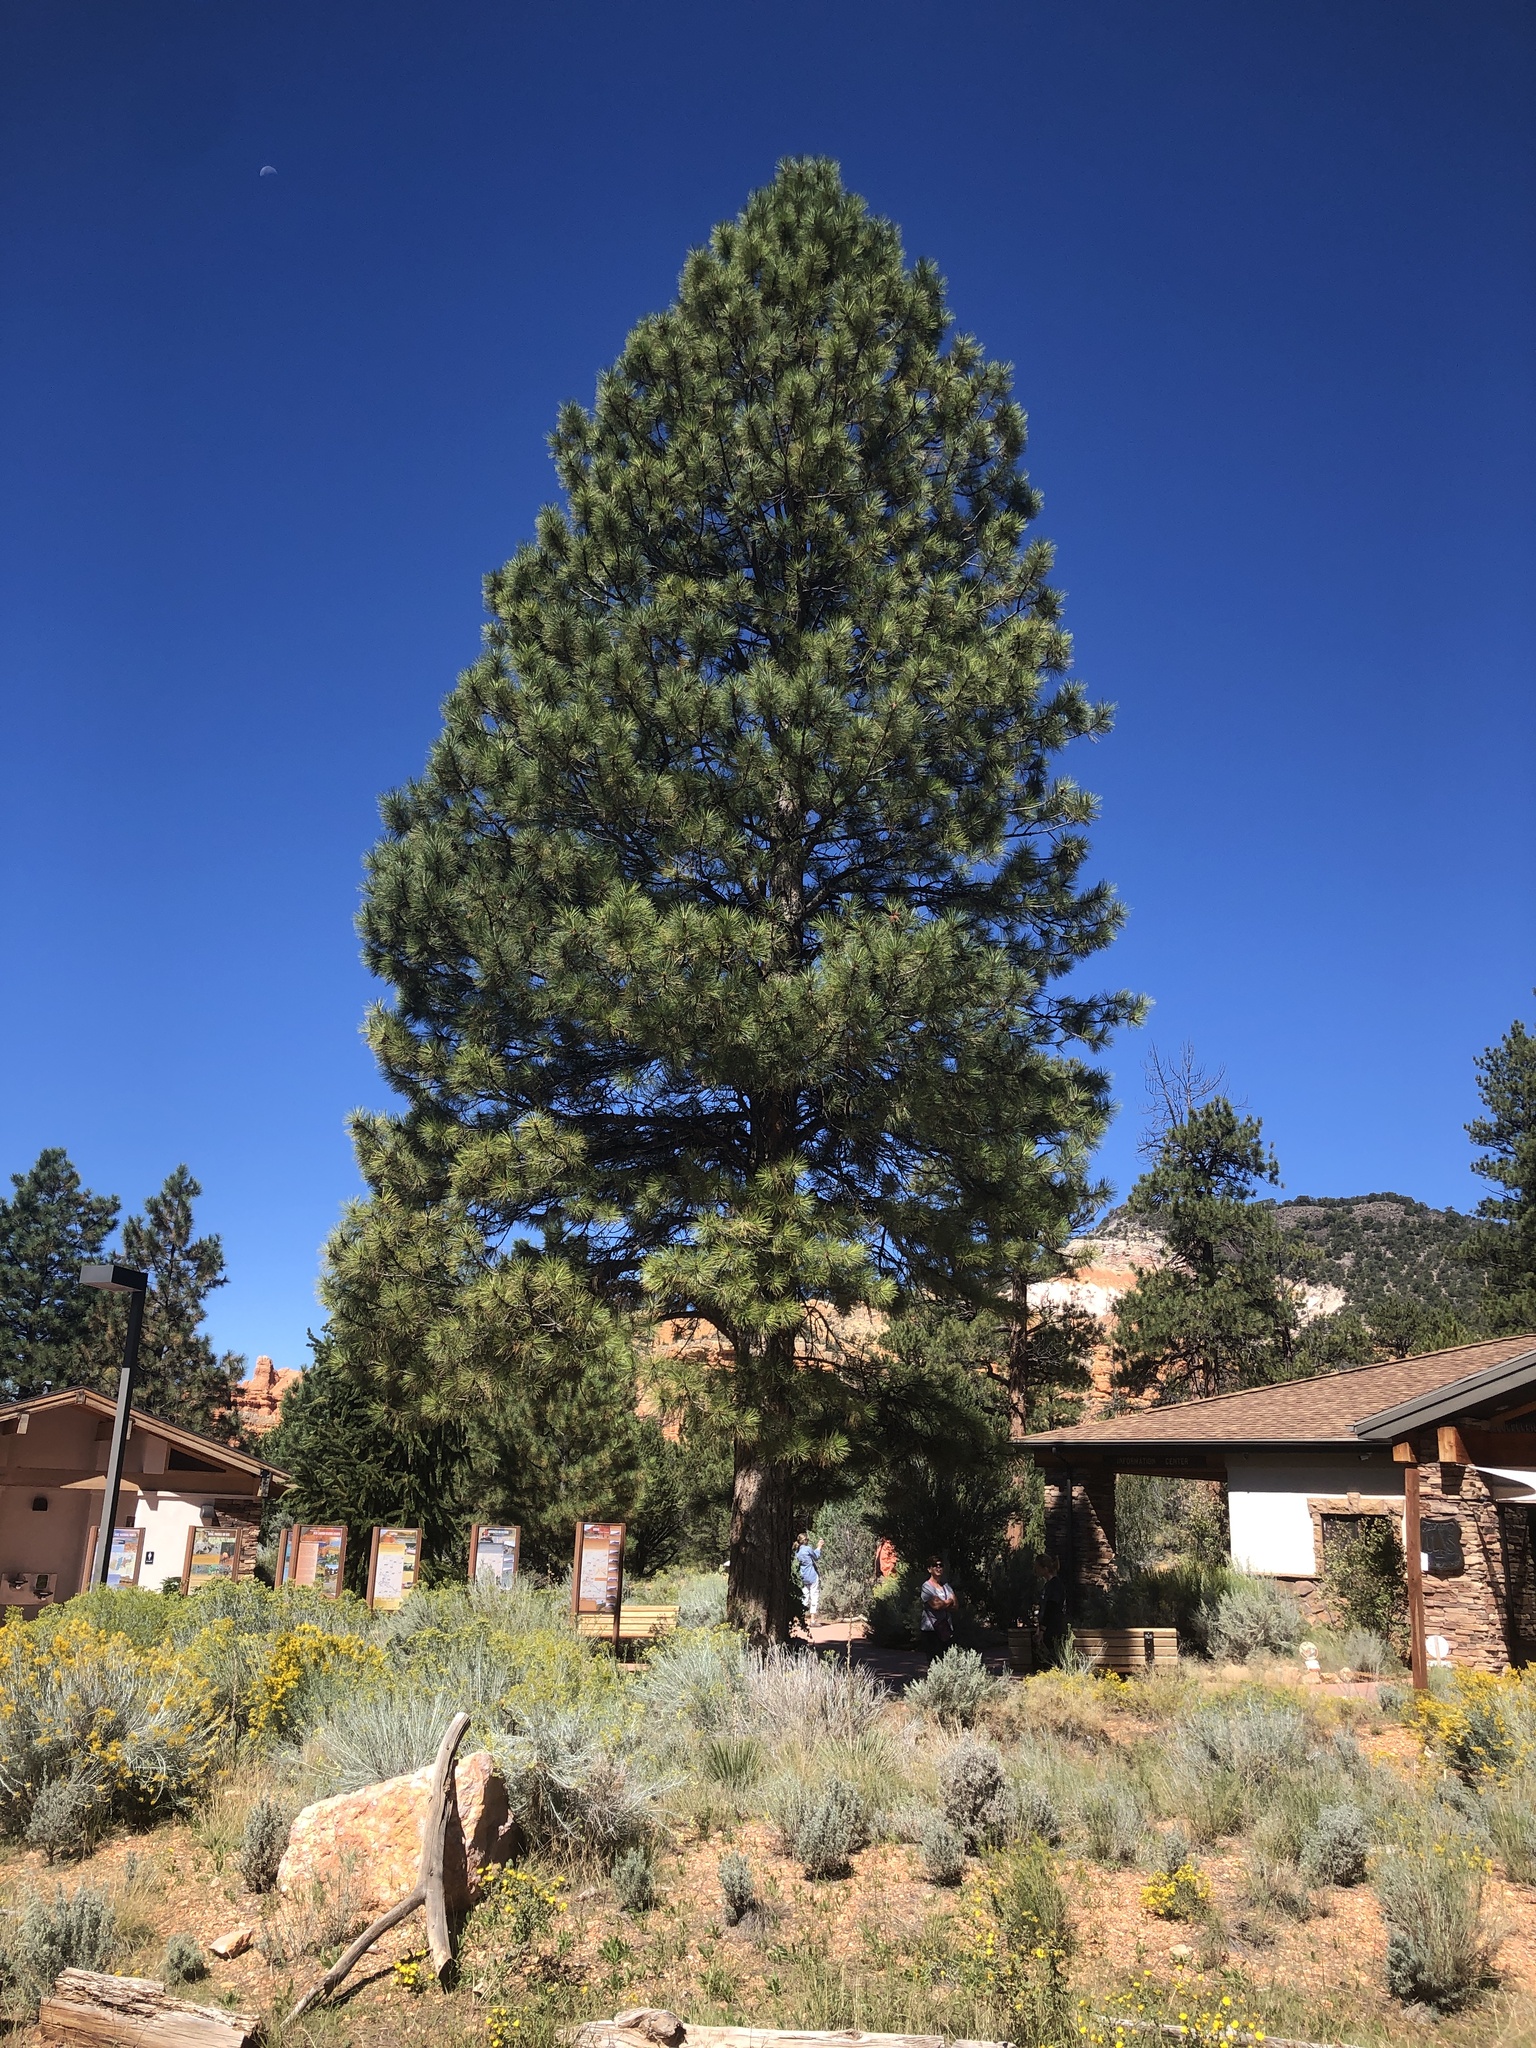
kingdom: Plantae
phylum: Tracheophyta
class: Pinopsida
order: Pinales
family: Pinaceae
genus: Pinus
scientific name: Pinus ponderosa
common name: Western yellow-pine
